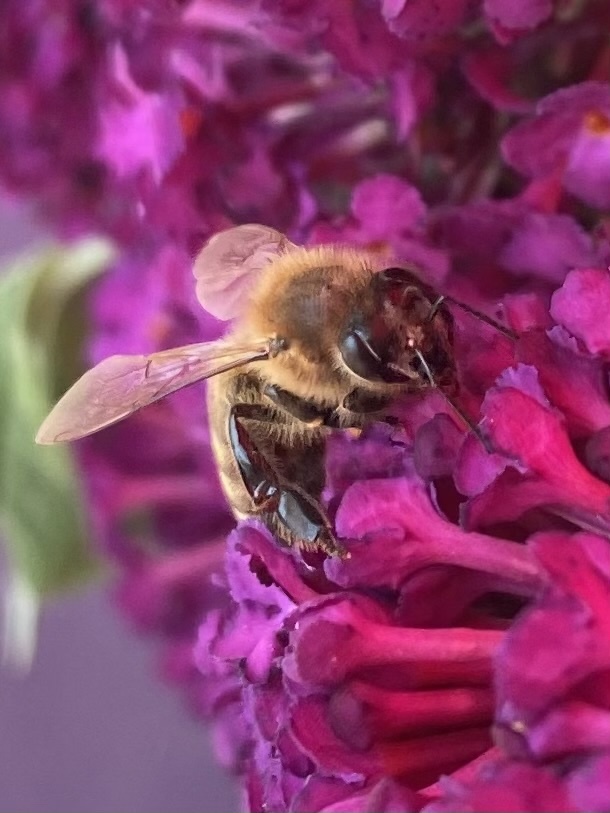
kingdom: Animalia
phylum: Arthropoda
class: Insecta
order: Hymenoptera
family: Apidae
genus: Apis
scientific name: Apis mellifera
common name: Honey bee
